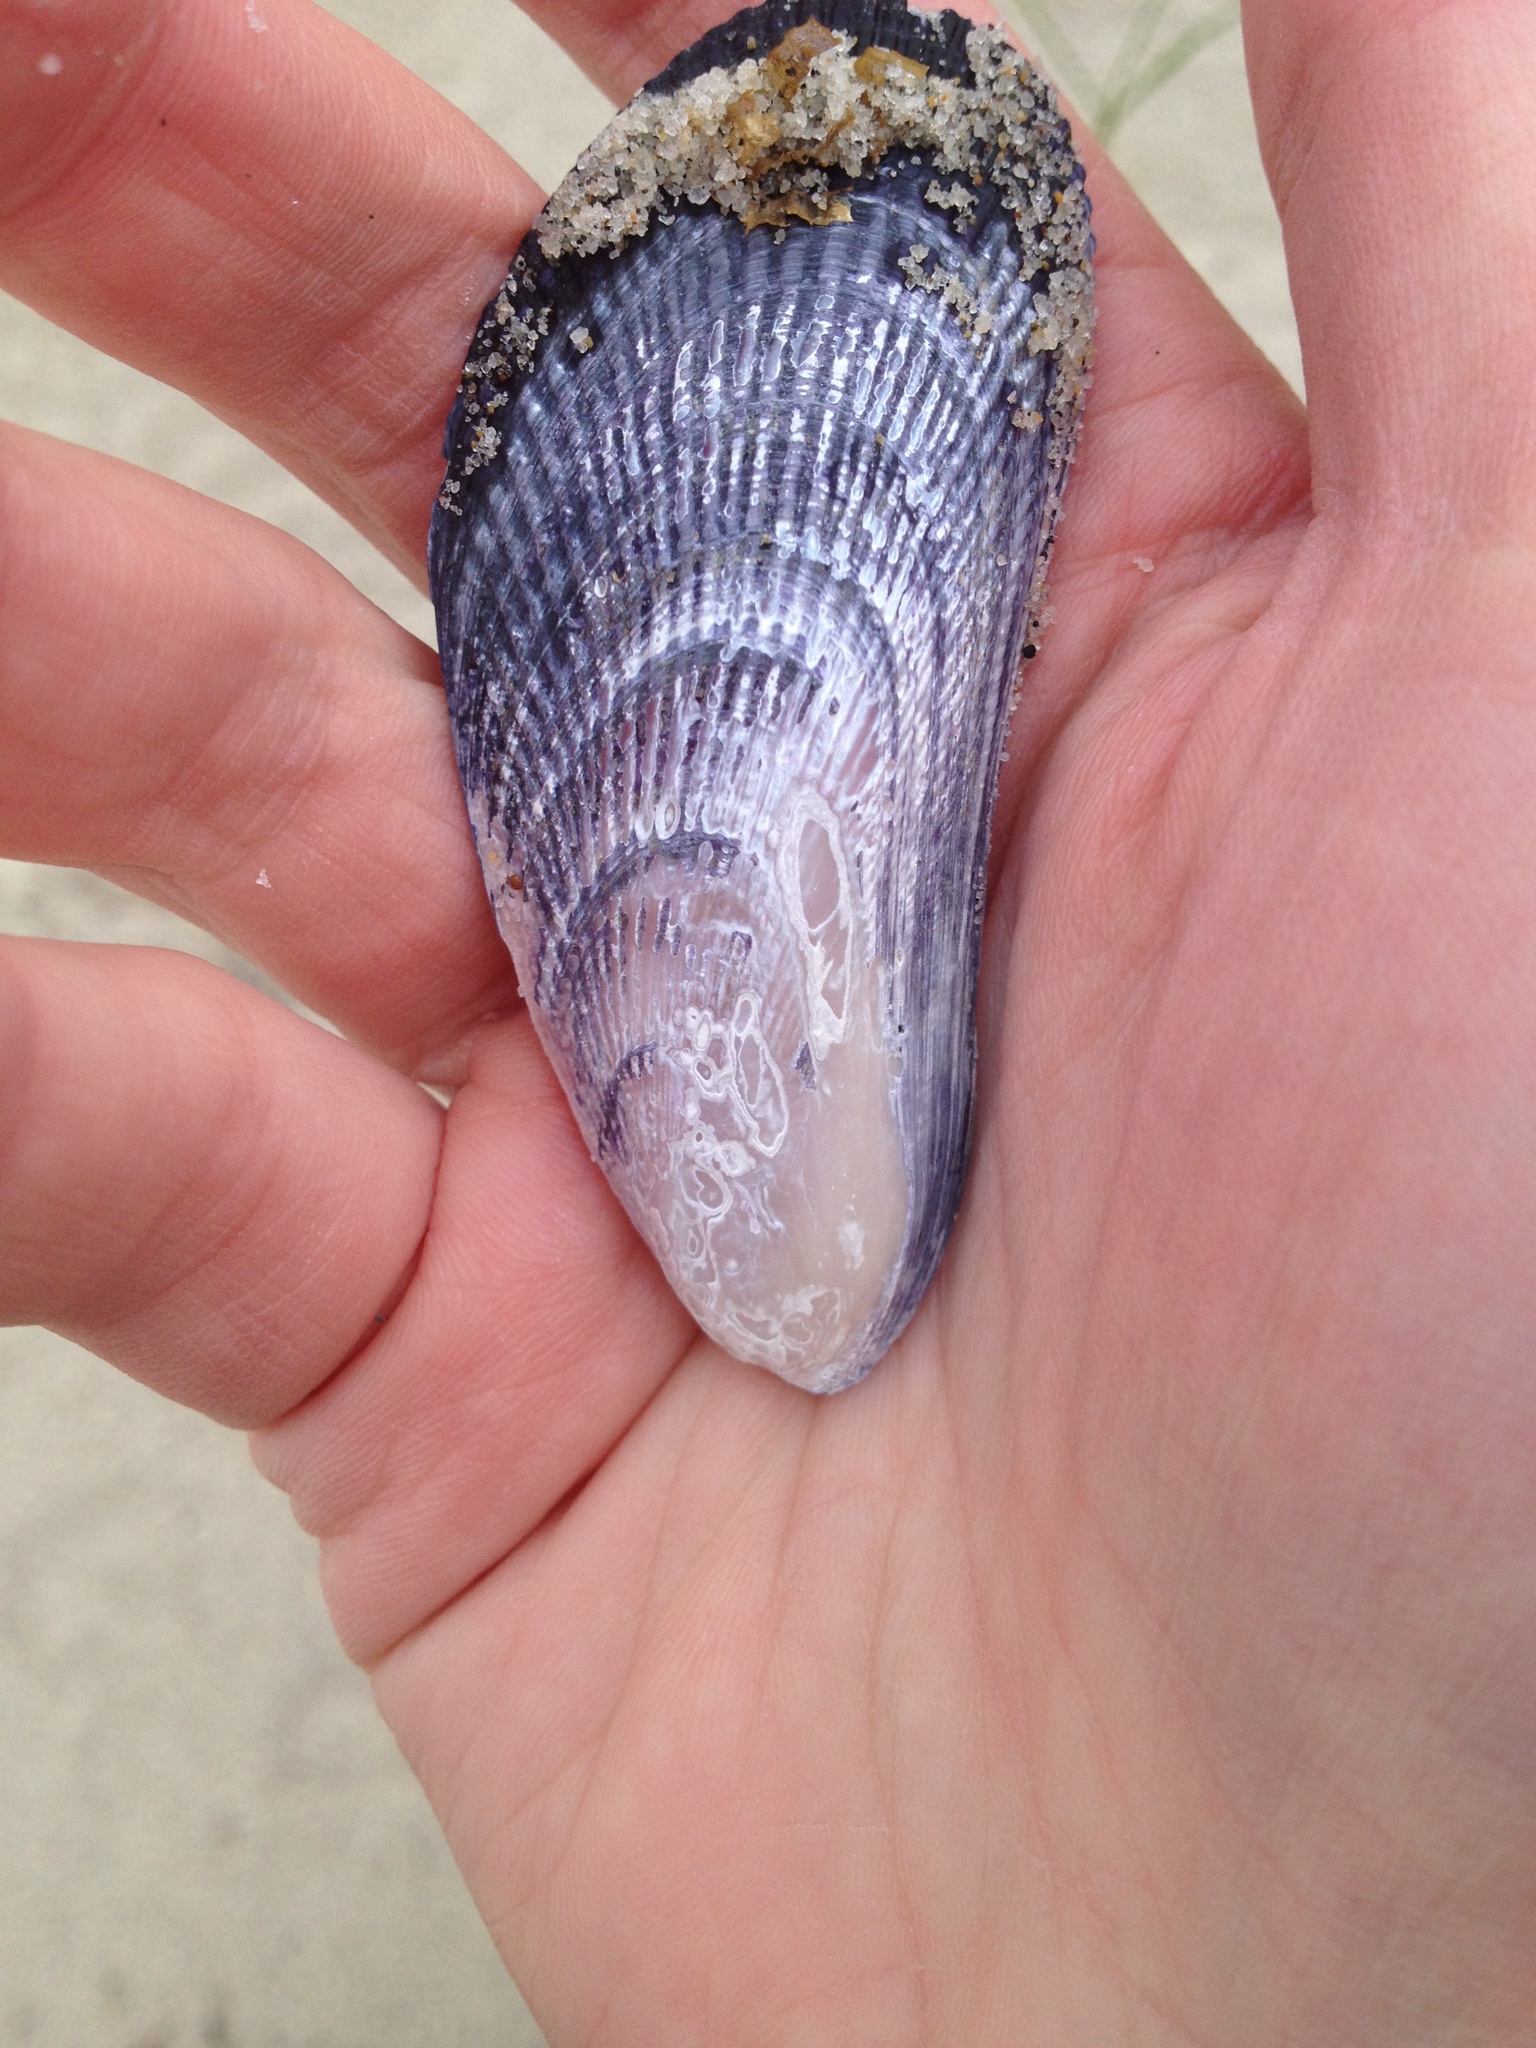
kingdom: Animalia
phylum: Mollusca
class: Bivalvia
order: Mytilida
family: Mytilidae
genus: Geukensia
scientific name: Geukensia demissa
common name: Ribbed mussel
